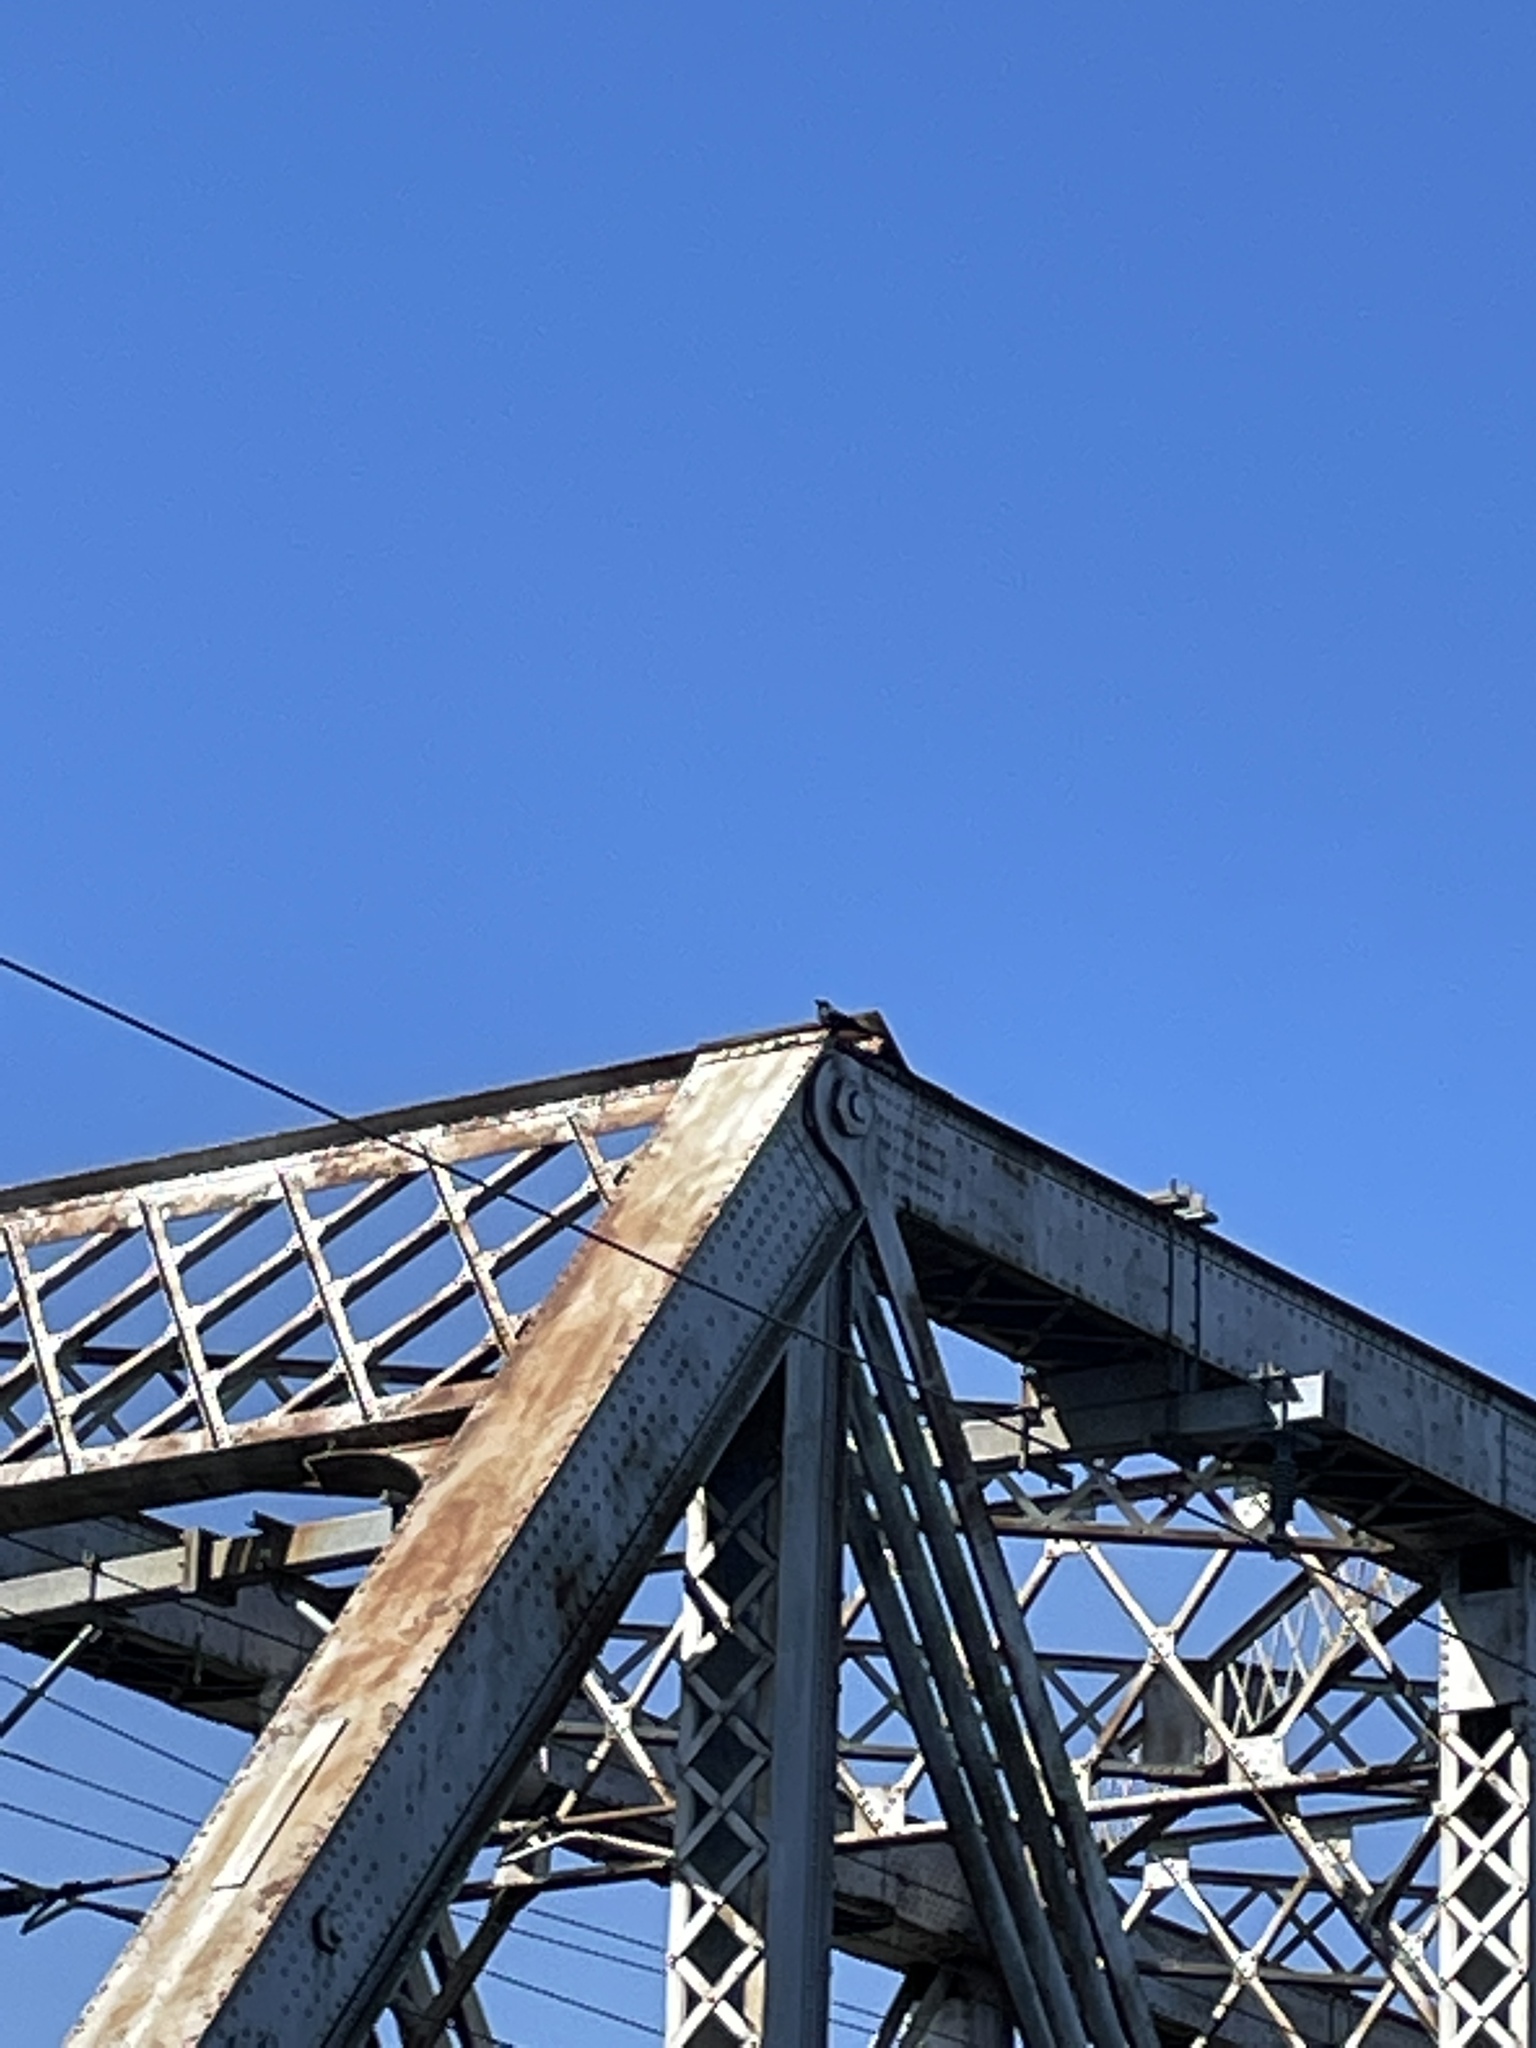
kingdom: Animalia
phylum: Chordata
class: Aves
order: Passeriformes
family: Corvidae
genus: Corvus
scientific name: Corvus ossifragus
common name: Fish crow
